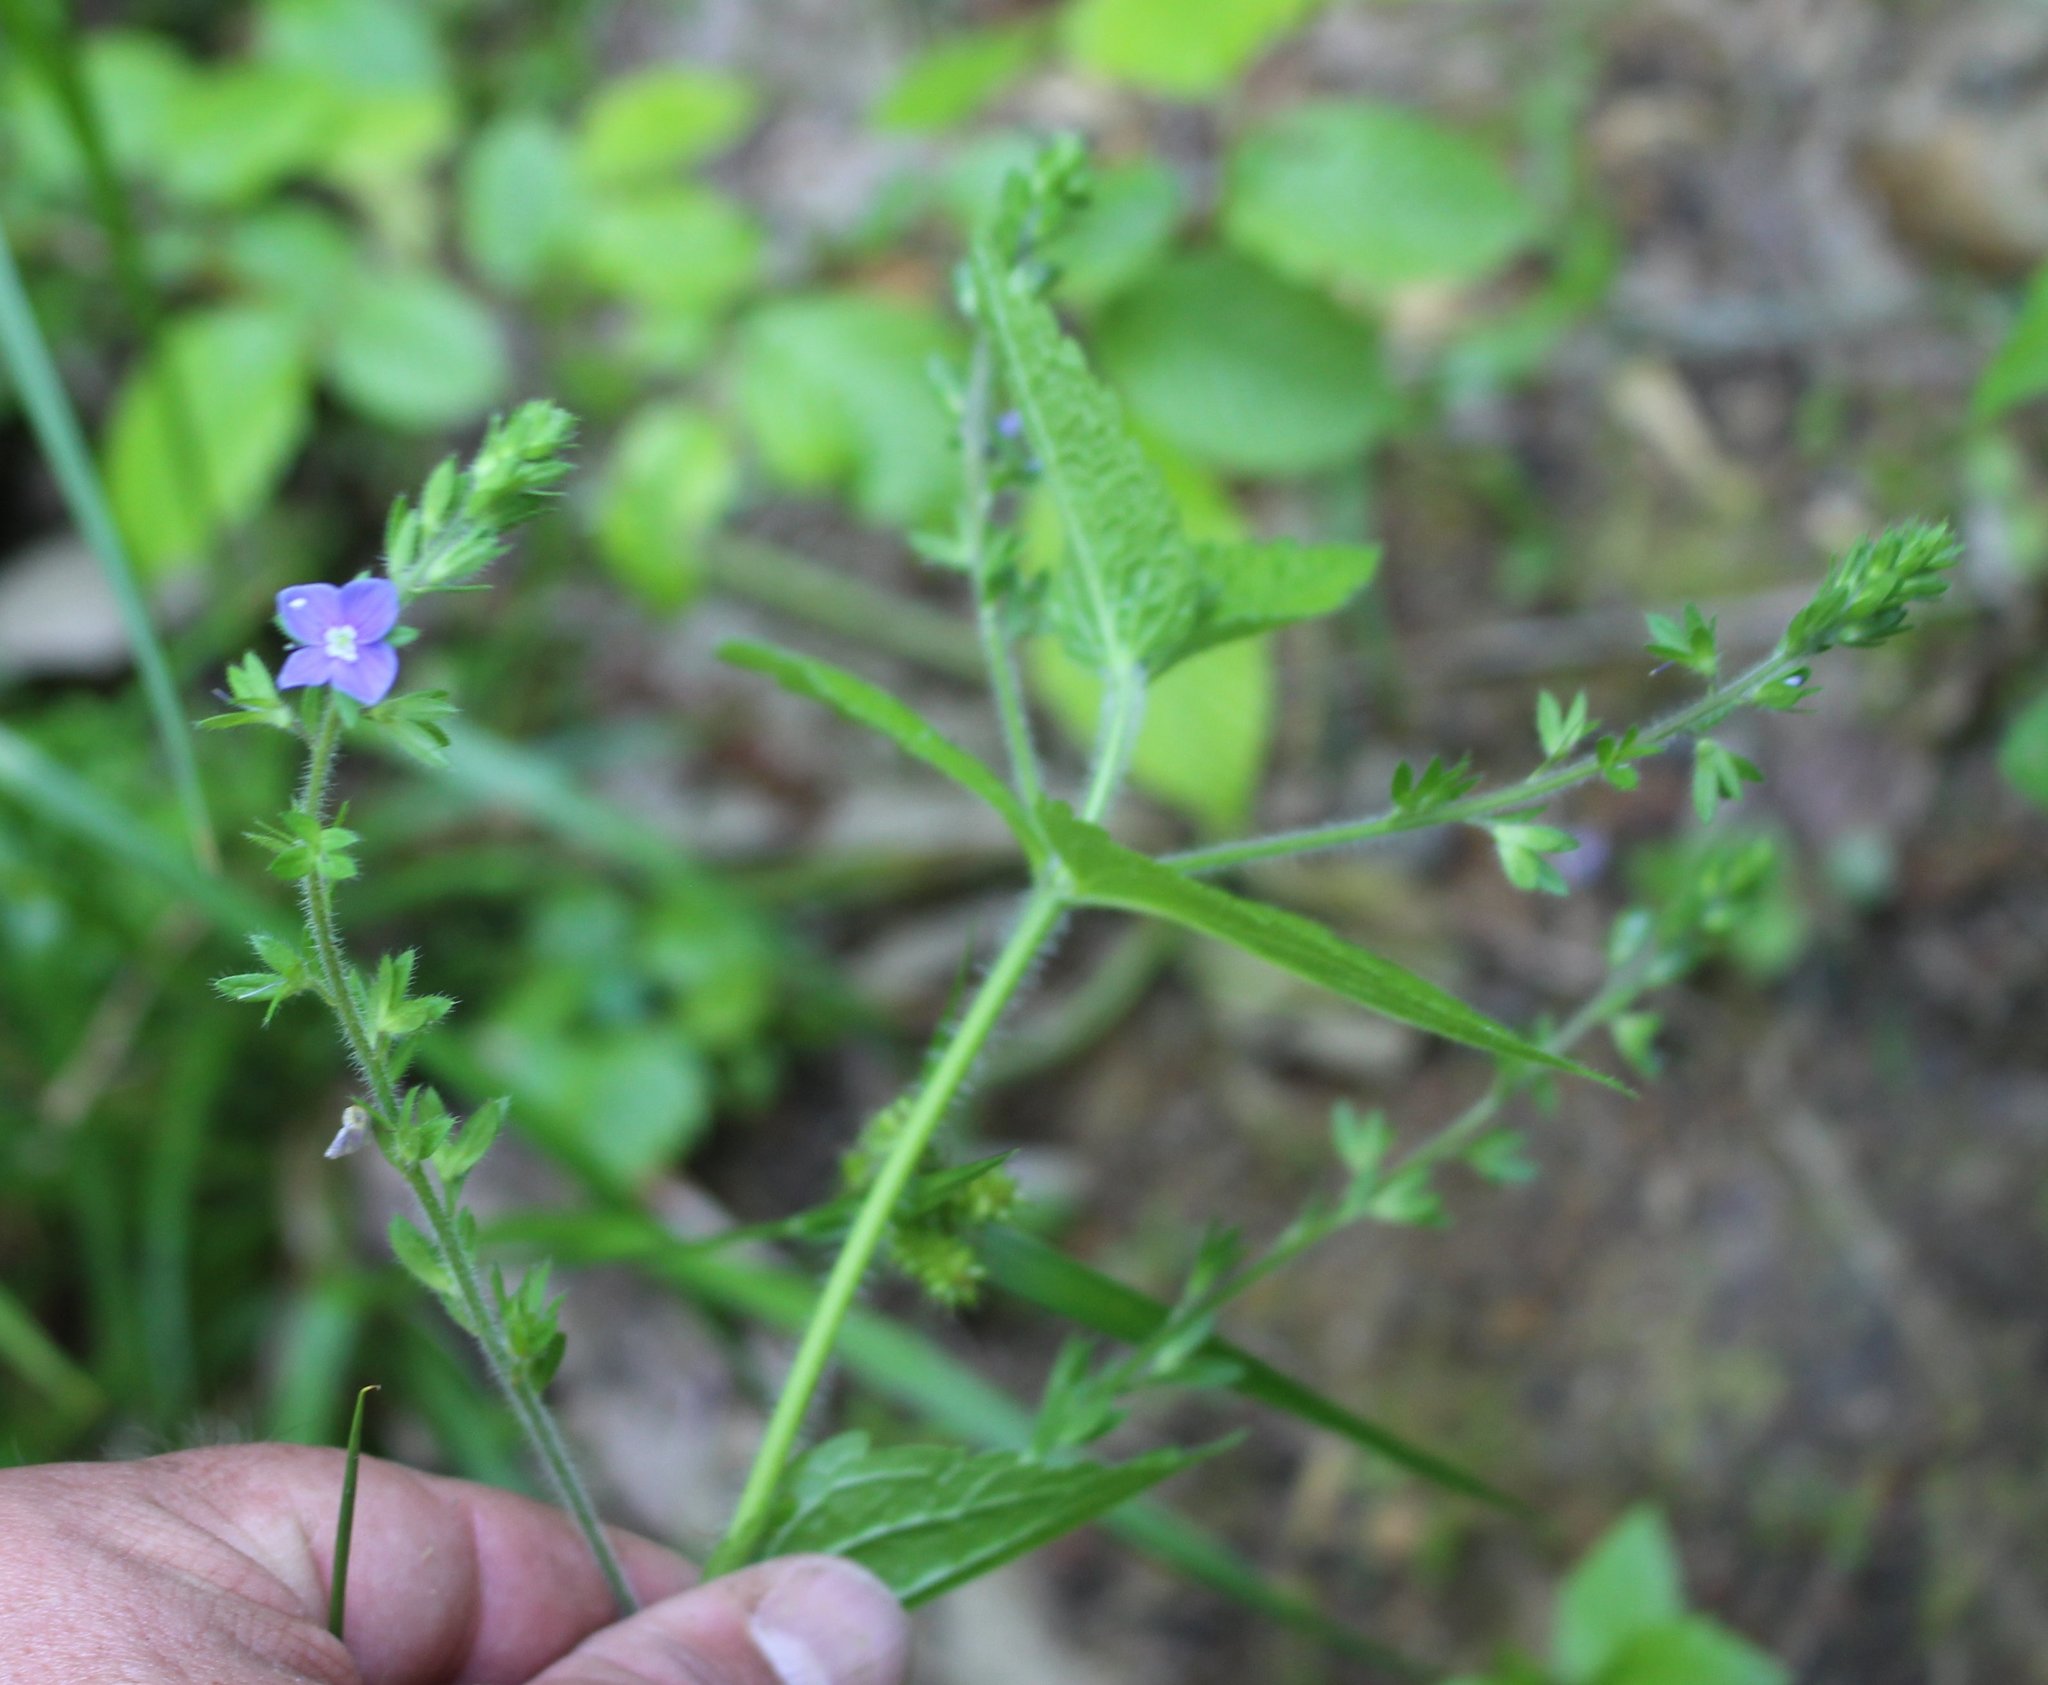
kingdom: Plantae
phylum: Tracheophyta
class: Magnoliopsida
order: Lamiales
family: Plantaginaceae
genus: Veronica
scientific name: Veronica magna
